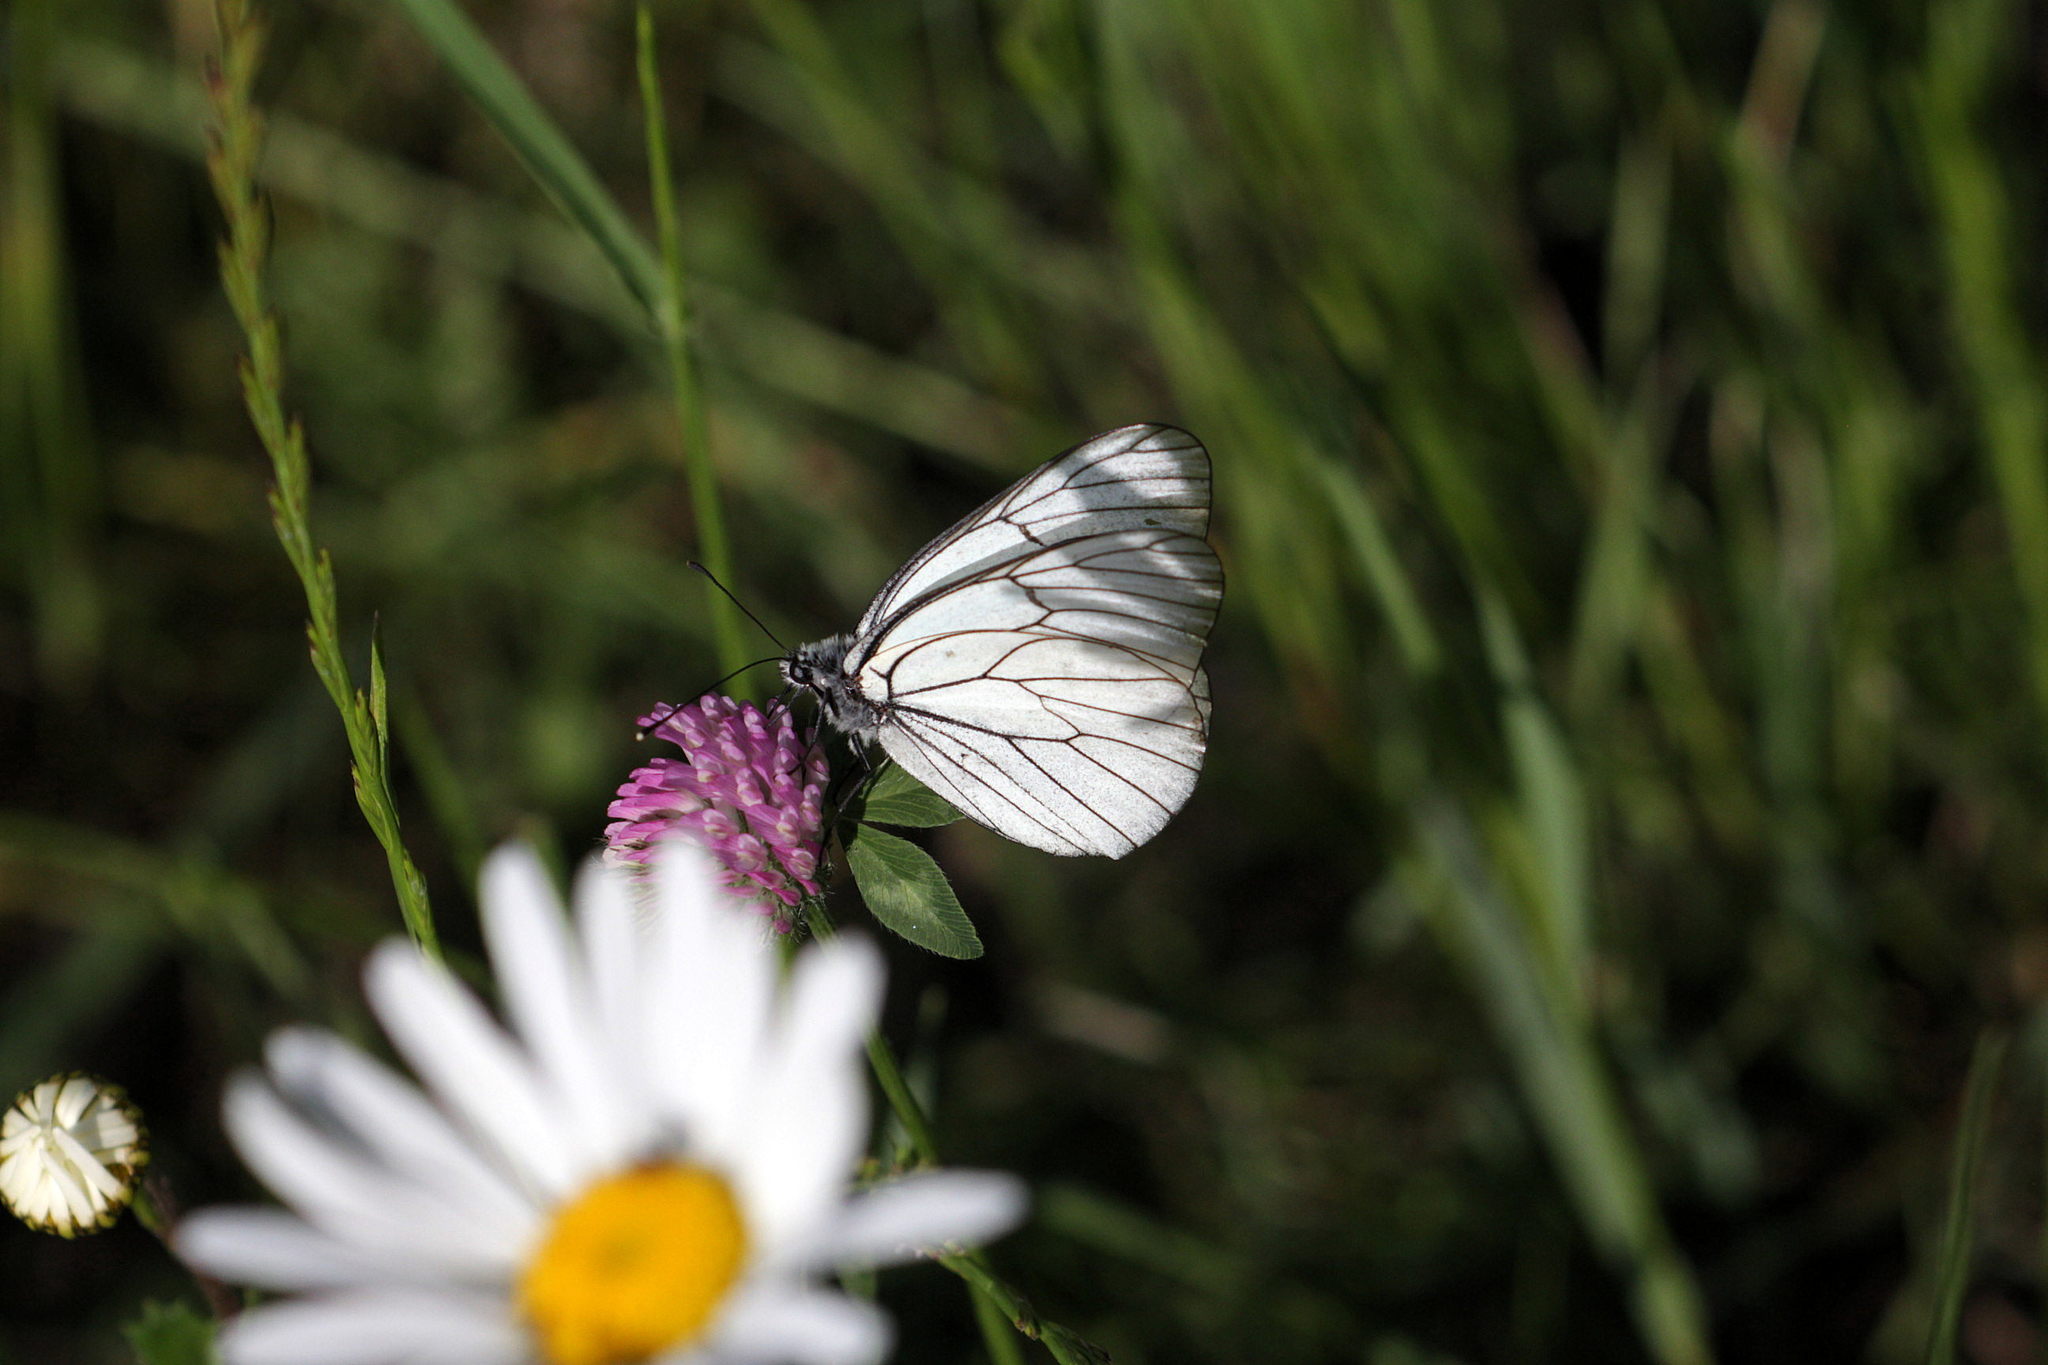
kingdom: Animalia
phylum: Arthropoda
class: Insecta
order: Lepidoptera
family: Pieridae
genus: Aporia
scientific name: Aporia crataegi
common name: Black-veined white
